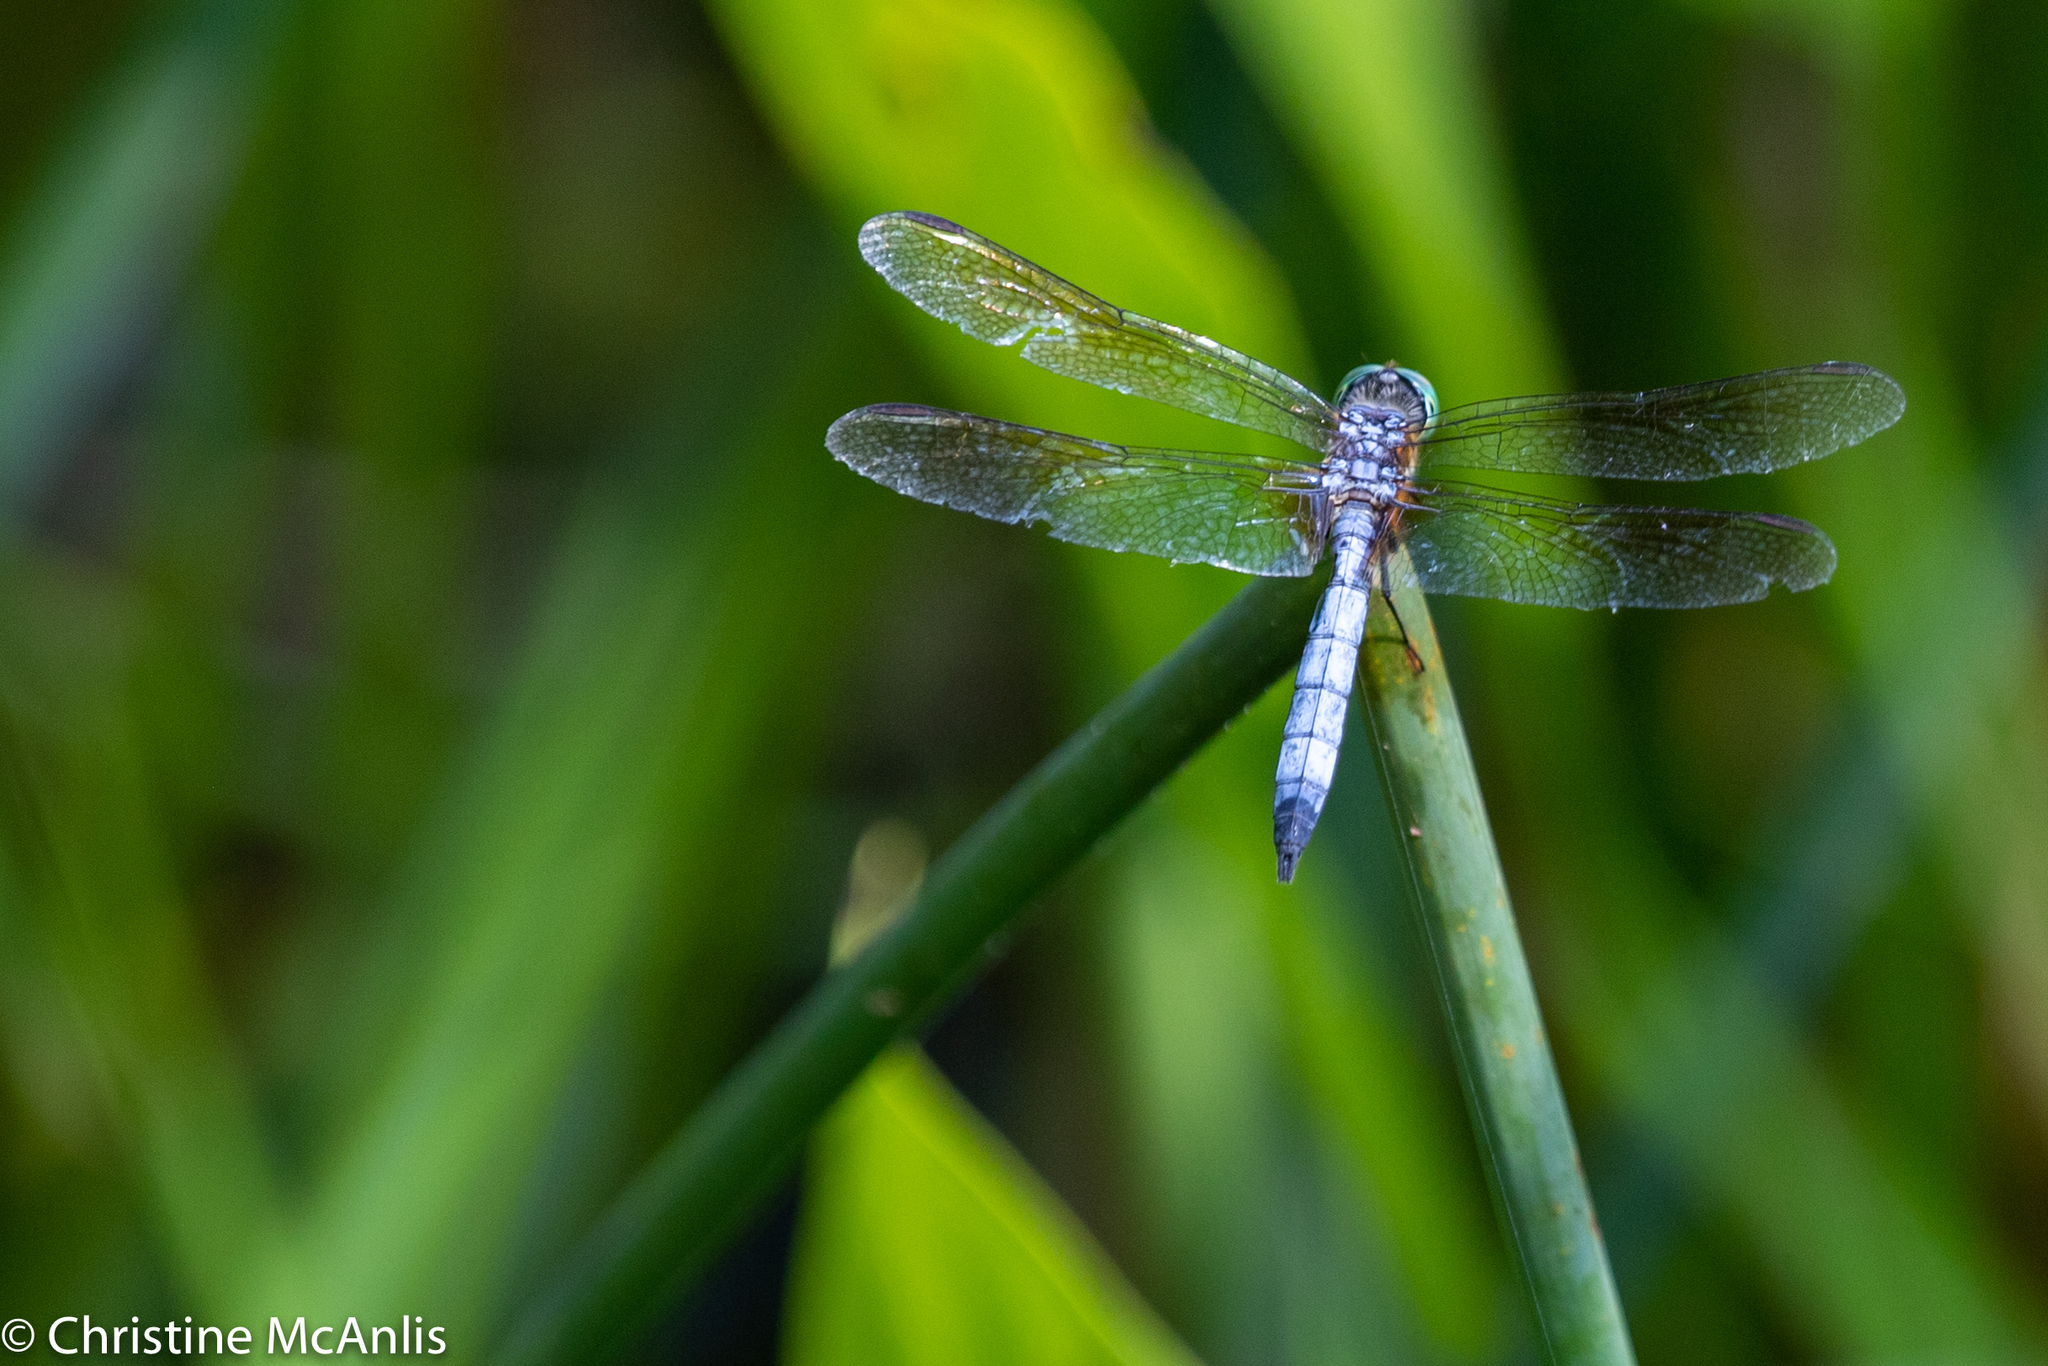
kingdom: Animalia
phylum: Arthropoda
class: Insecta
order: Odonata
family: Libellulidae
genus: Pachydiplax
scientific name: Pachydiplax longipennis
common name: Blue dasher
